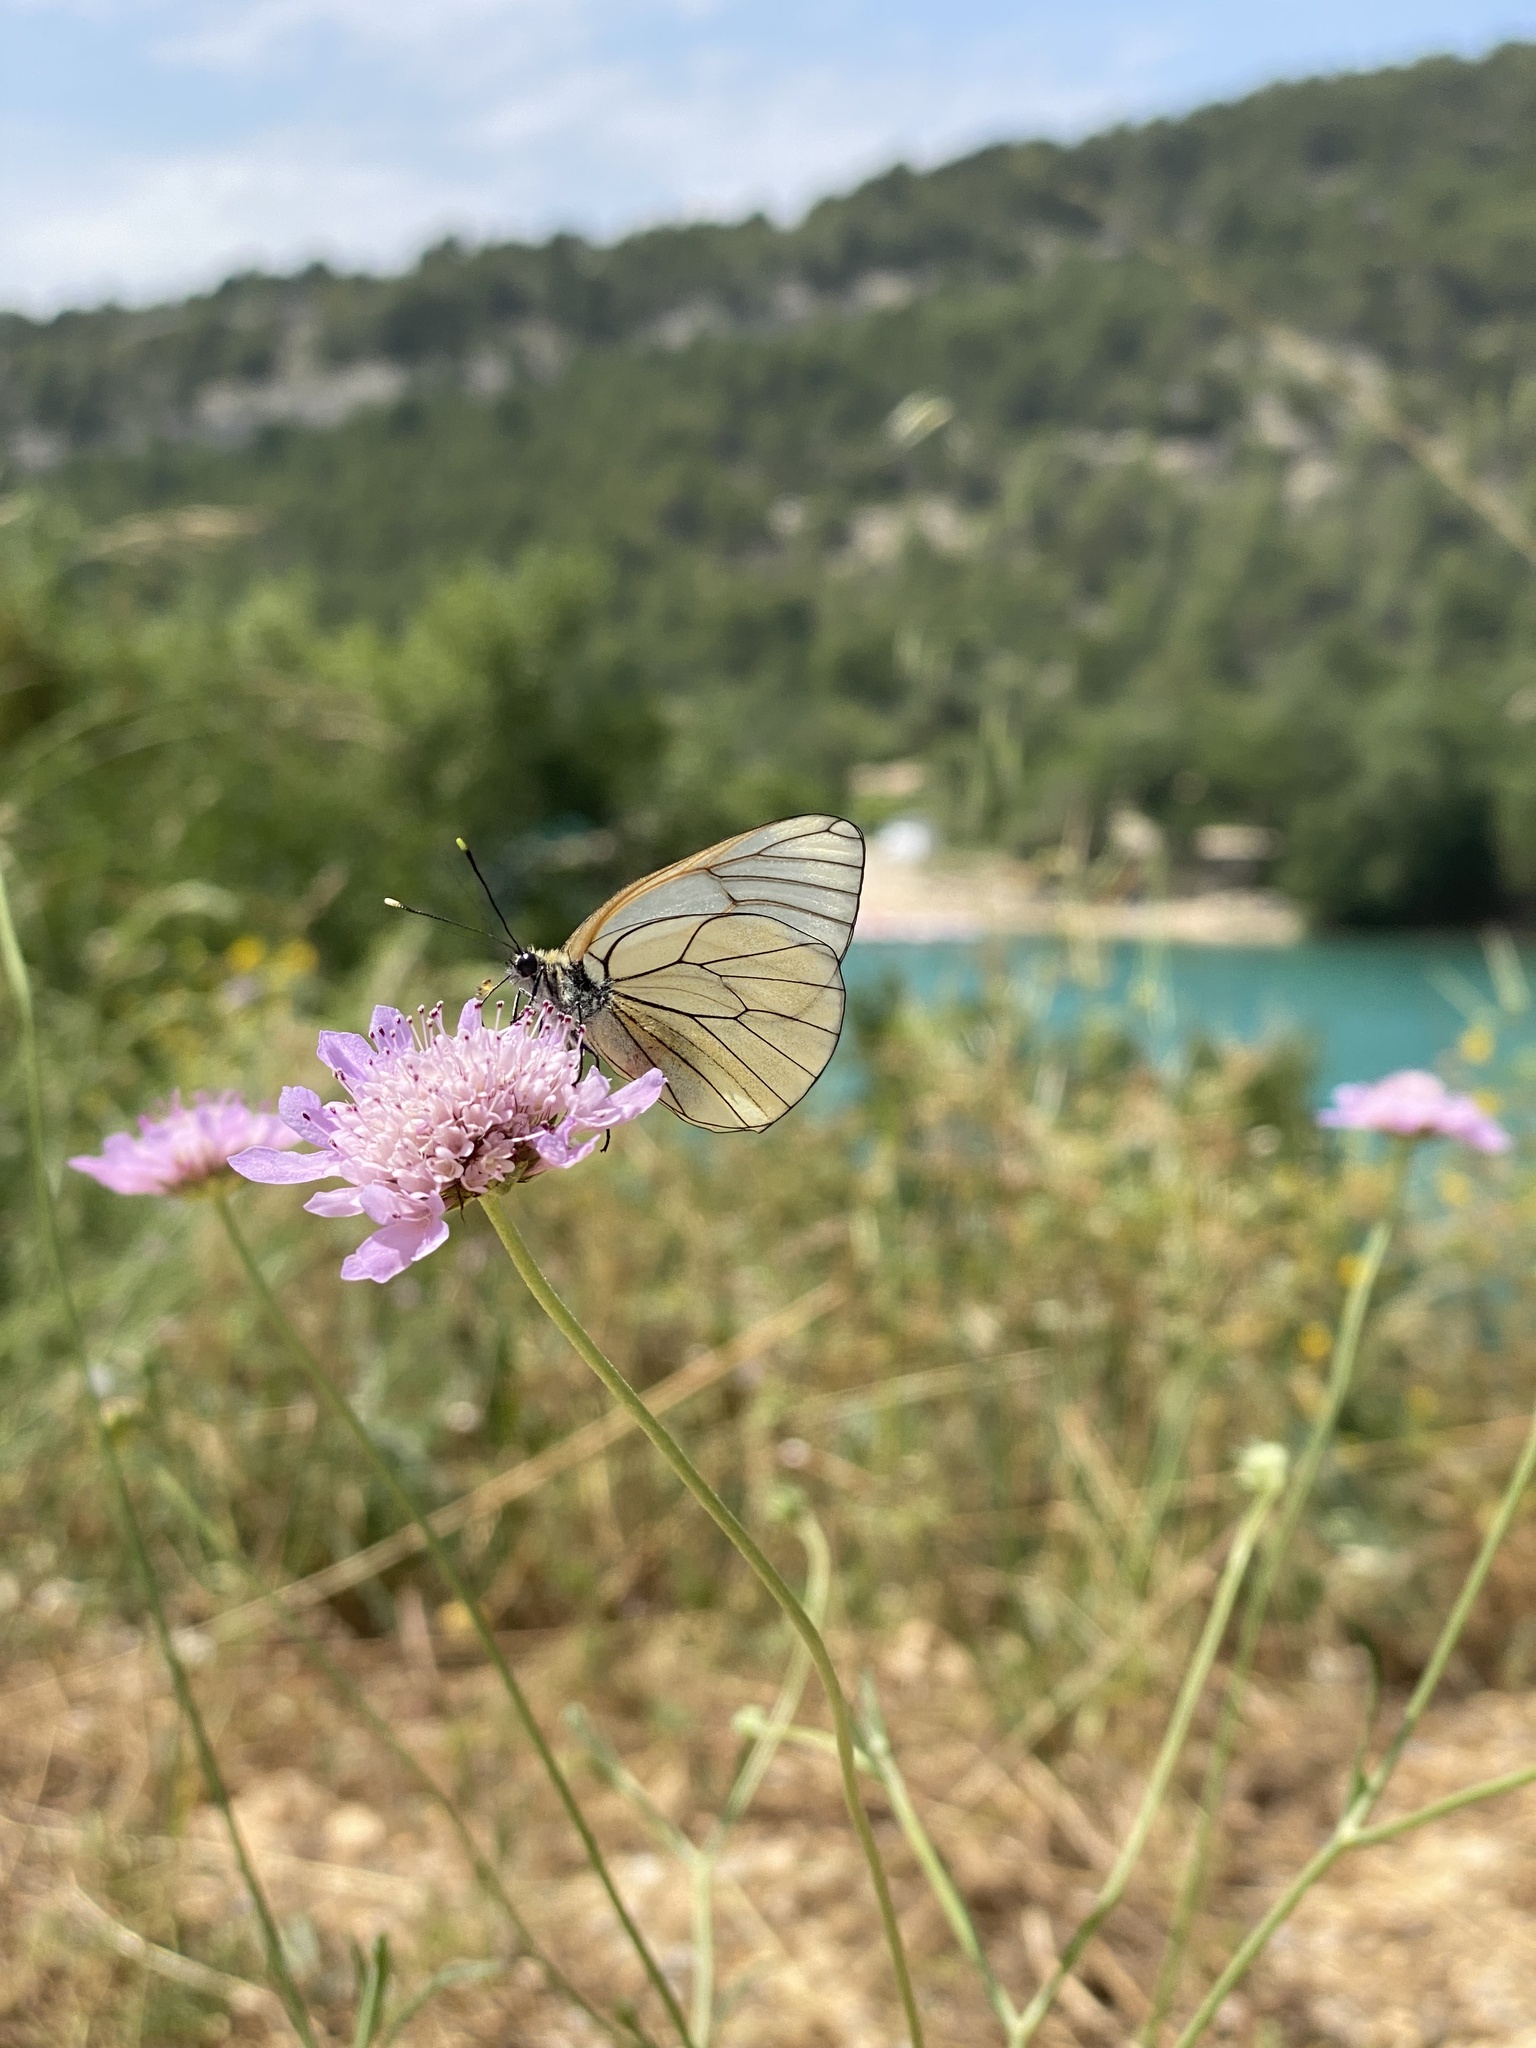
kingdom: Animalia
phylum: Arthropoda
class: Insecta
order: Lepidoptera
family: Pieridae
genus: Aporia
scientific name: Aporia crataegi
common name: Black-veined white
